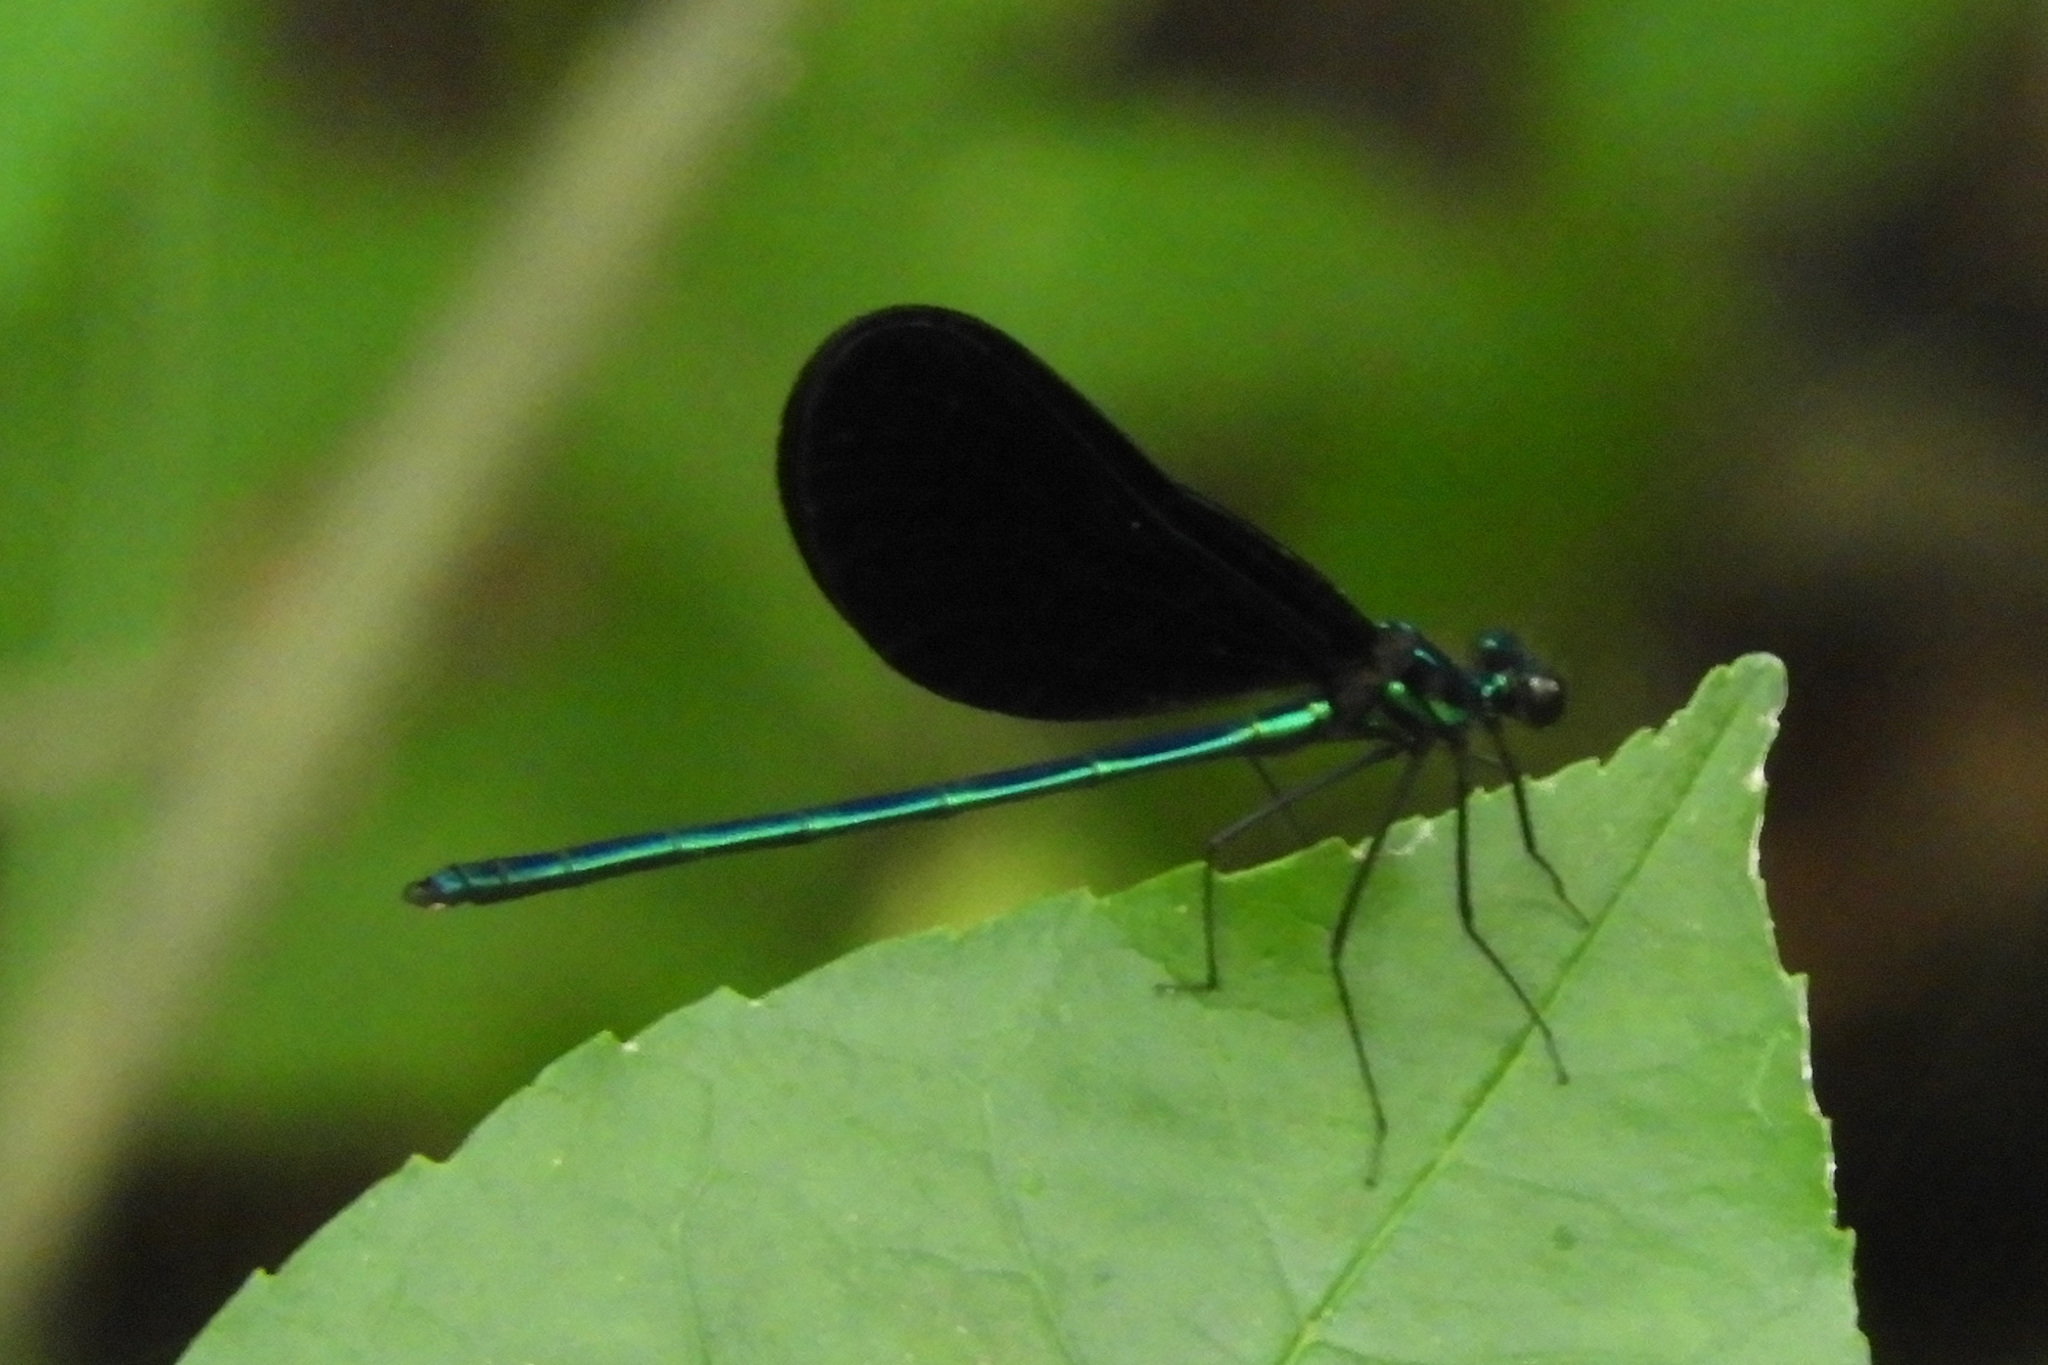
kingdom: Animalia
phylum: Arthropoda
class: Insecta
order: Odonata
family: Calopterygidae
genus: Calopteryx
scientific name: Calopteryx maculata
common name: Ebony jewelwing
